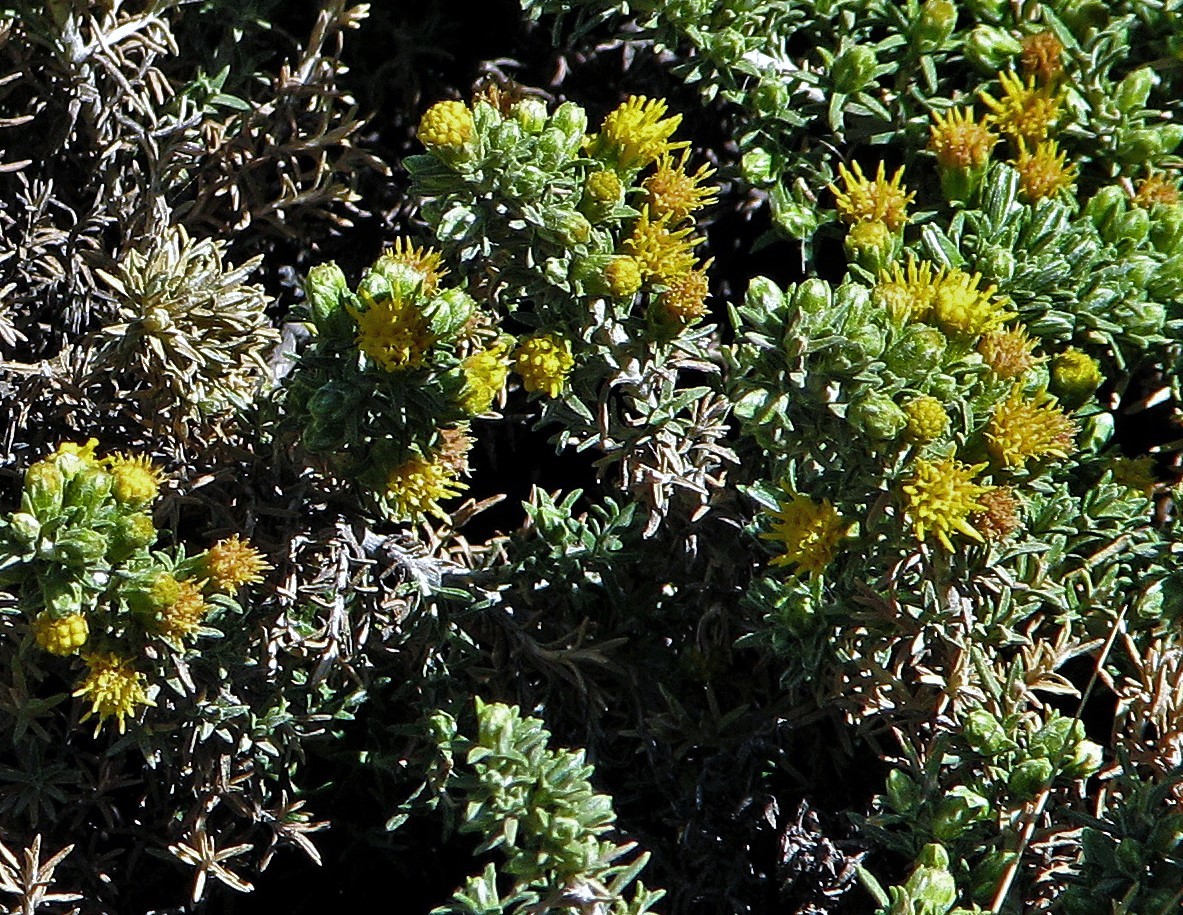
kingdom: Plantae
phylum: Tracheophyta
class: Magnoliopsida
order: Asterales
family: Asteraceae
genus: Parastrephia
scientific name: Parastrephia lucida
